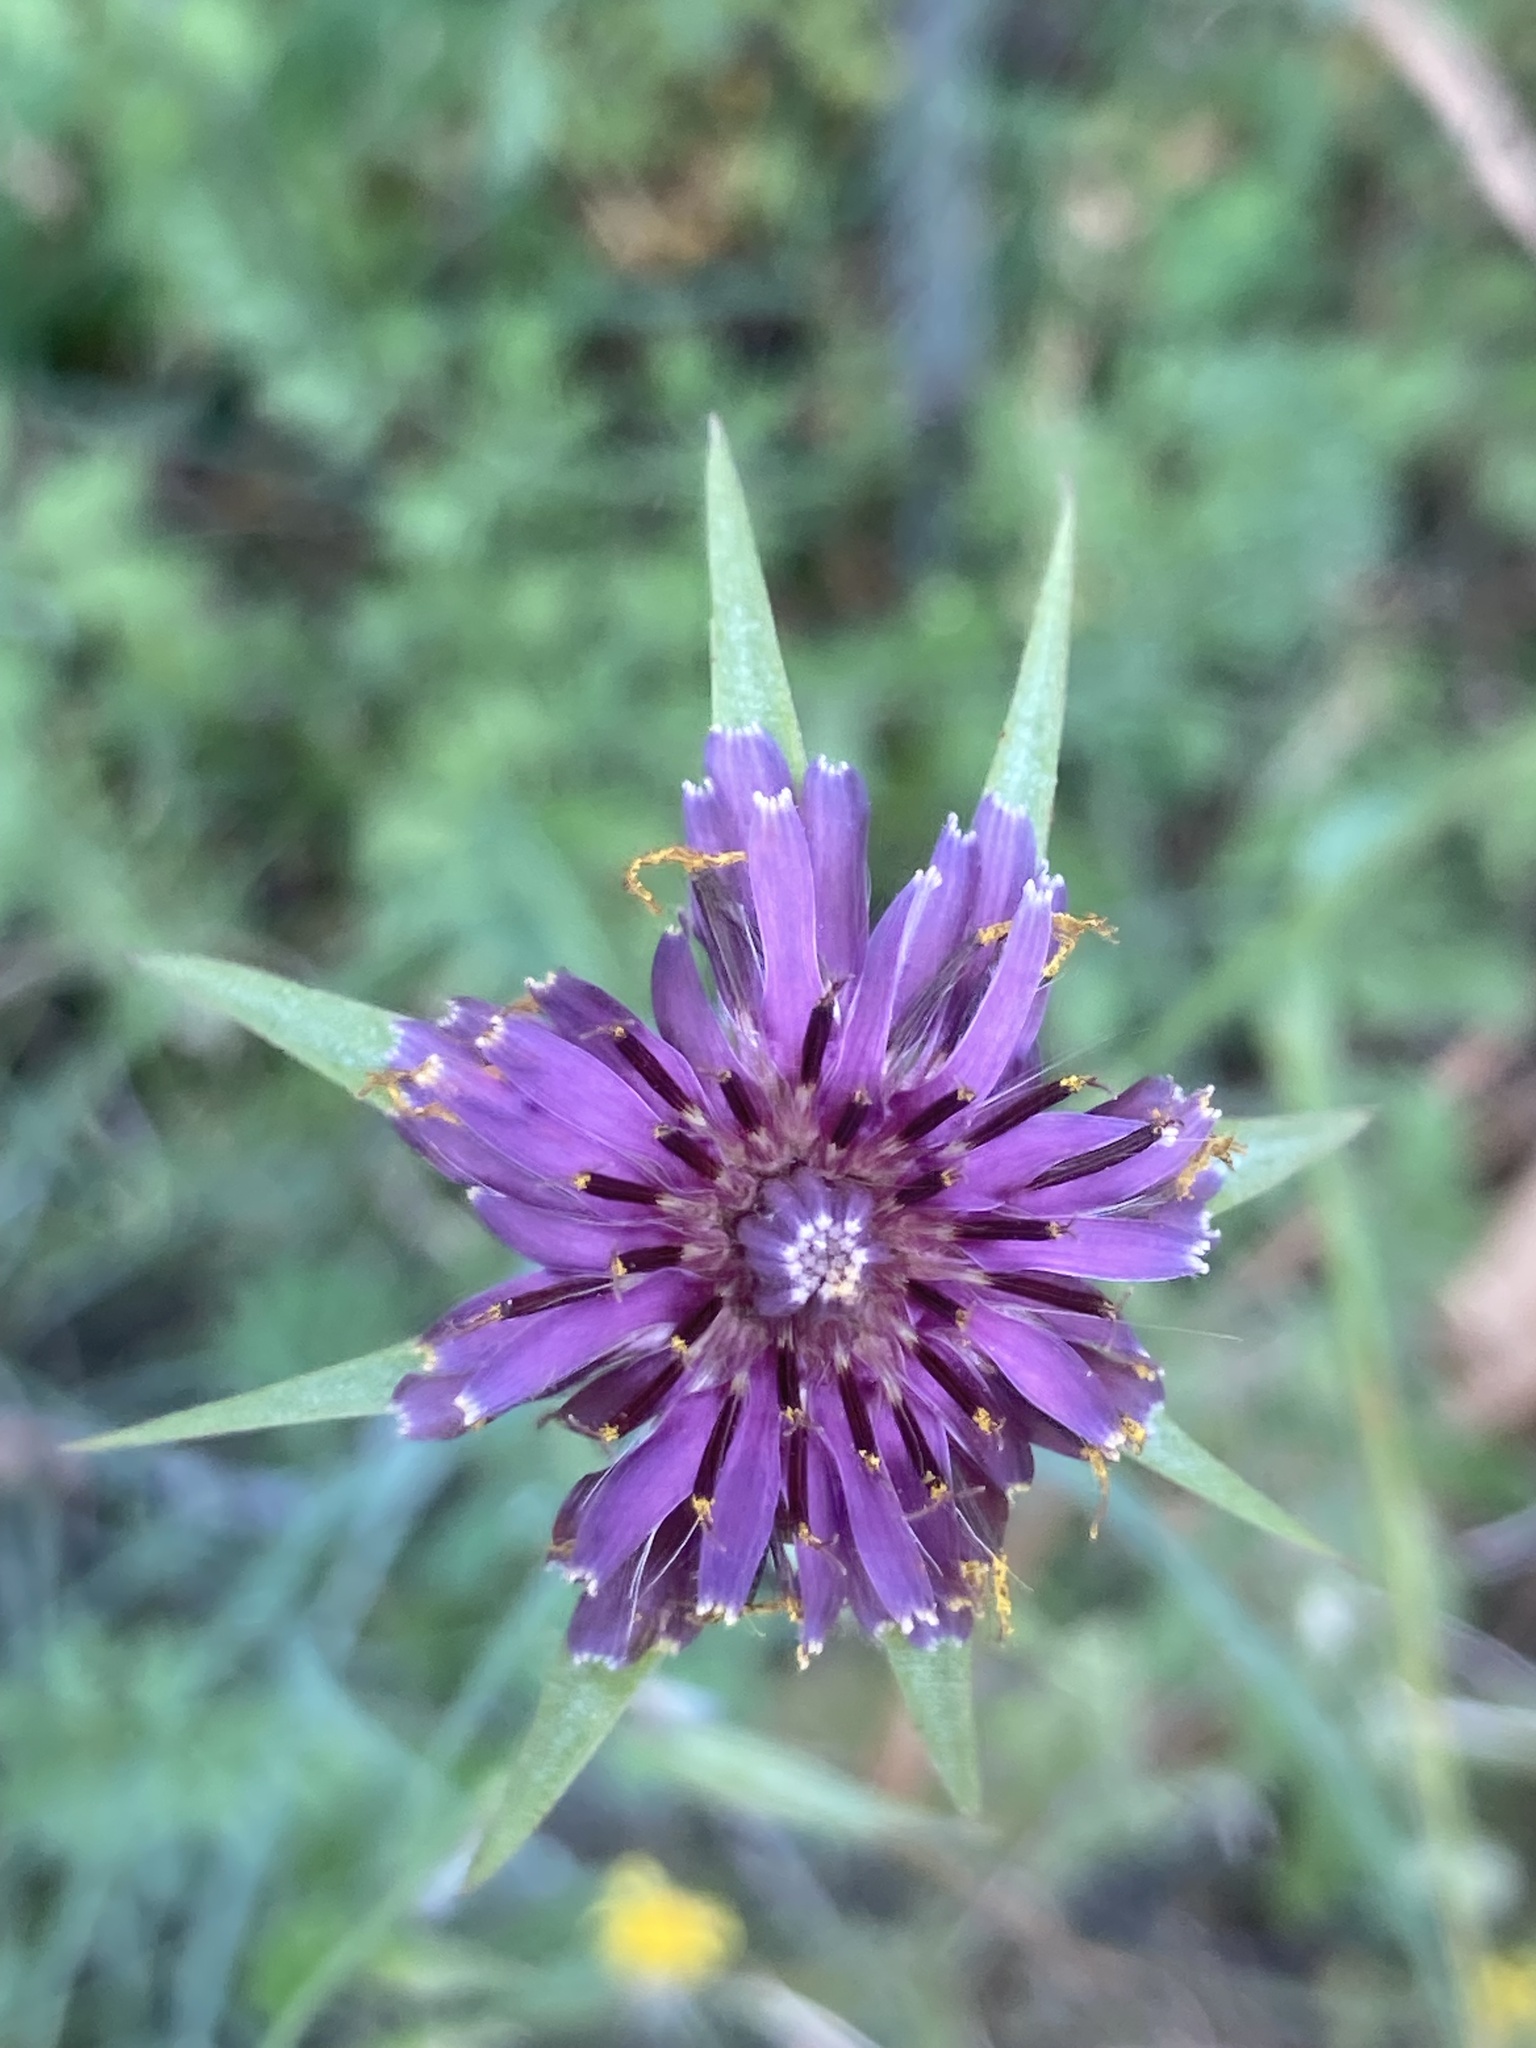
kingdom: Plantae
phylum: Tracheophyta
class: Magnoliopsida
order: Asterales
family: Asteraceae
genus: Tragopogon
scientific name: Tragopogon
